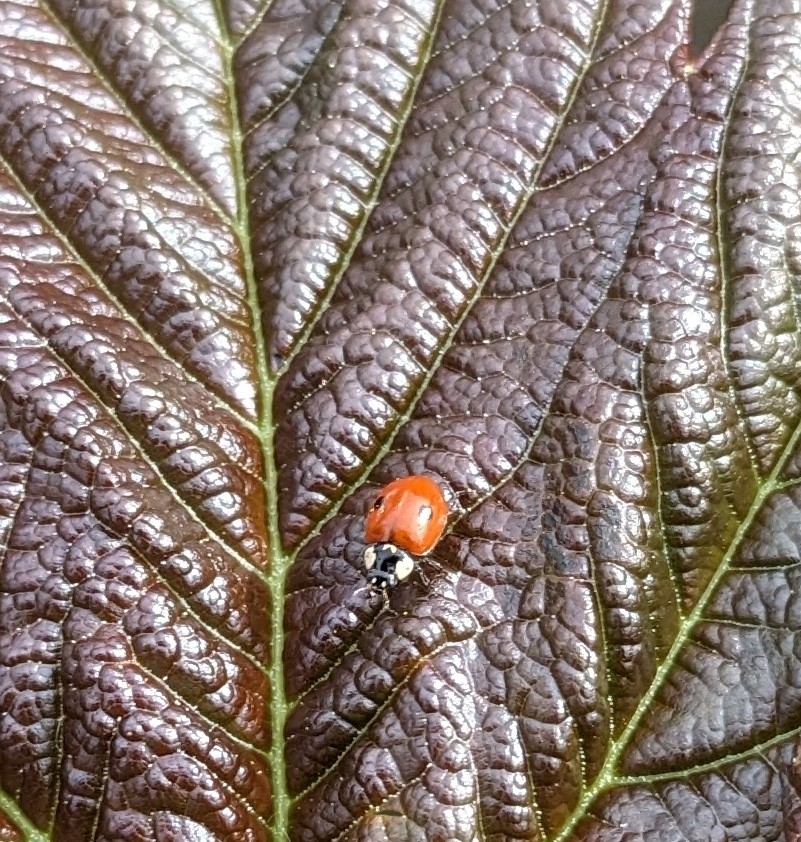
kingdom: Animalia
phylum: Arthropoda
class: Insecta
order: Coleoptera
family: Coccinellidae
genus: Adalia
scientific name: Adalia bipunctata
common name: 2-spot ladybird
